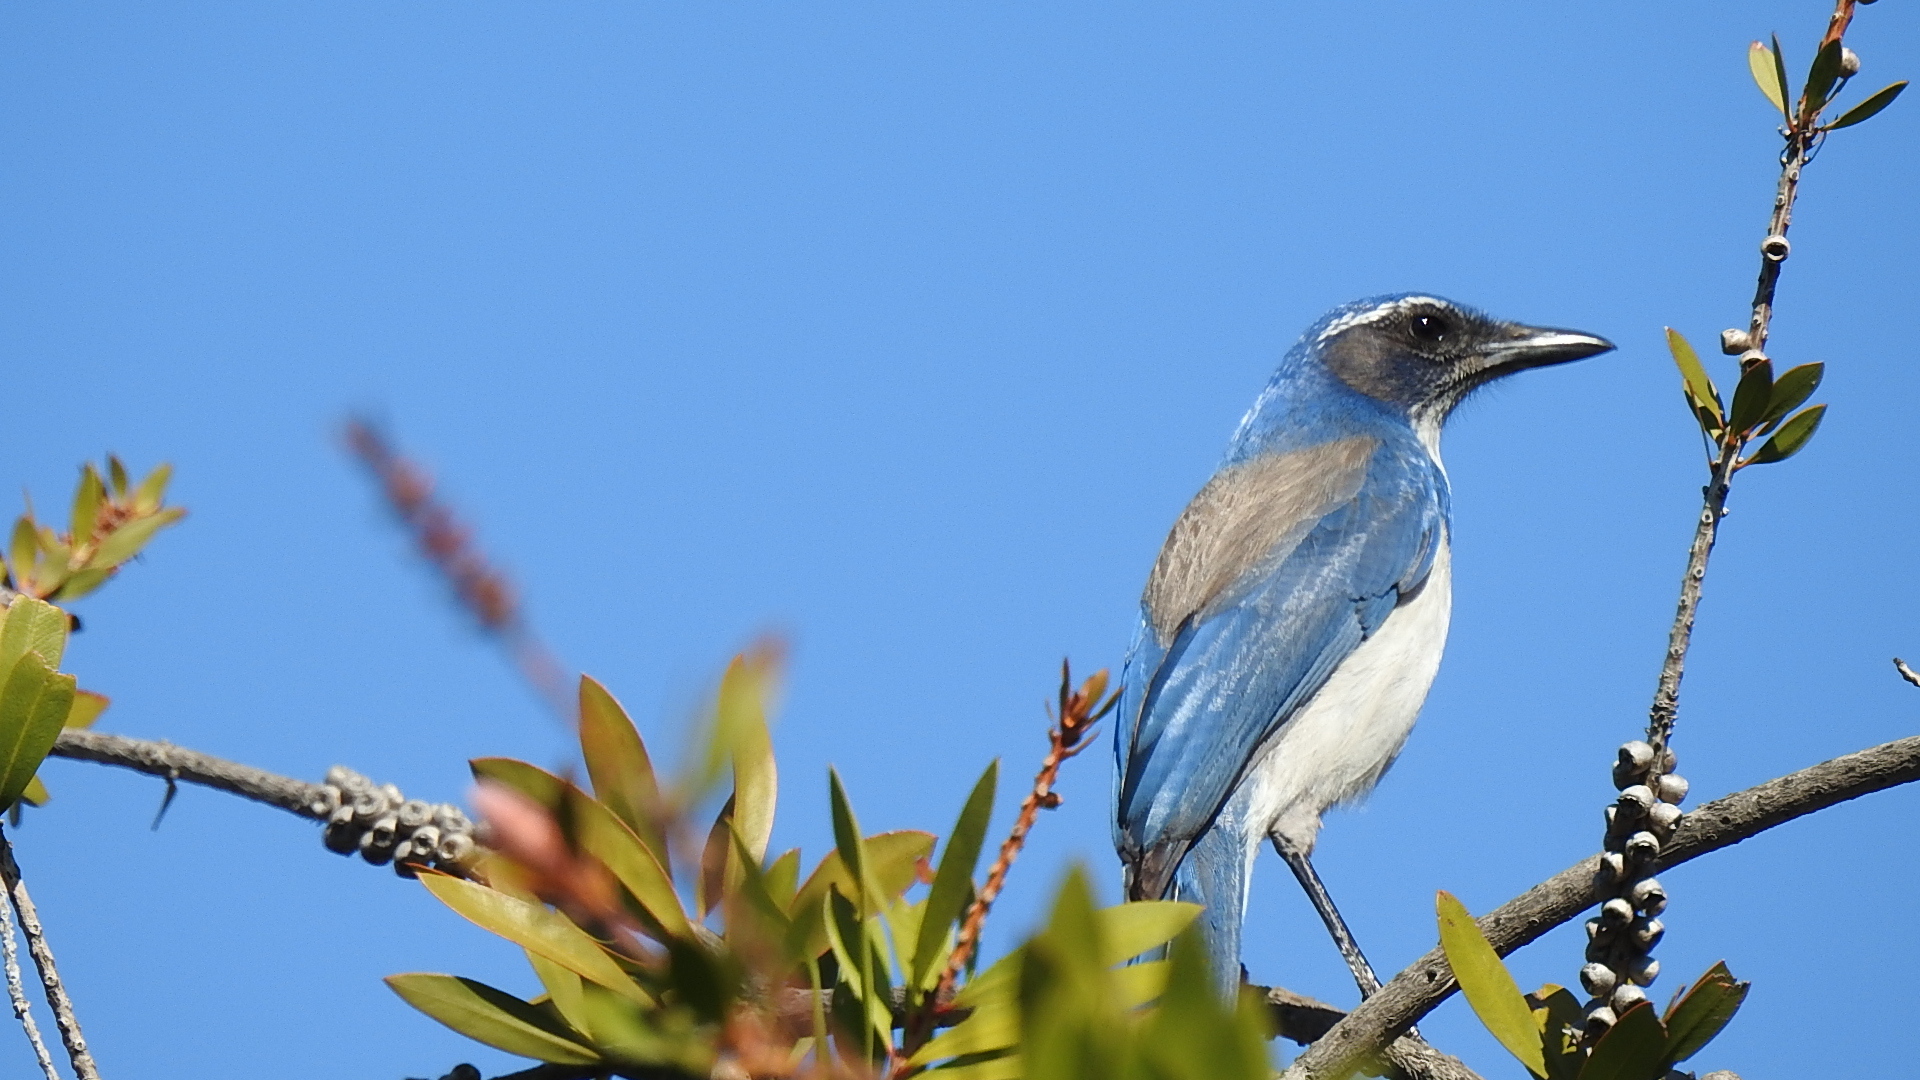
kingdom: Animalia
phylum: Chordata
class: Aves
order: Passeriformes
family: Corvidae
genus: Aphelocoma
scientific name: Aphelocoma californica
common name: California scrub-jay
